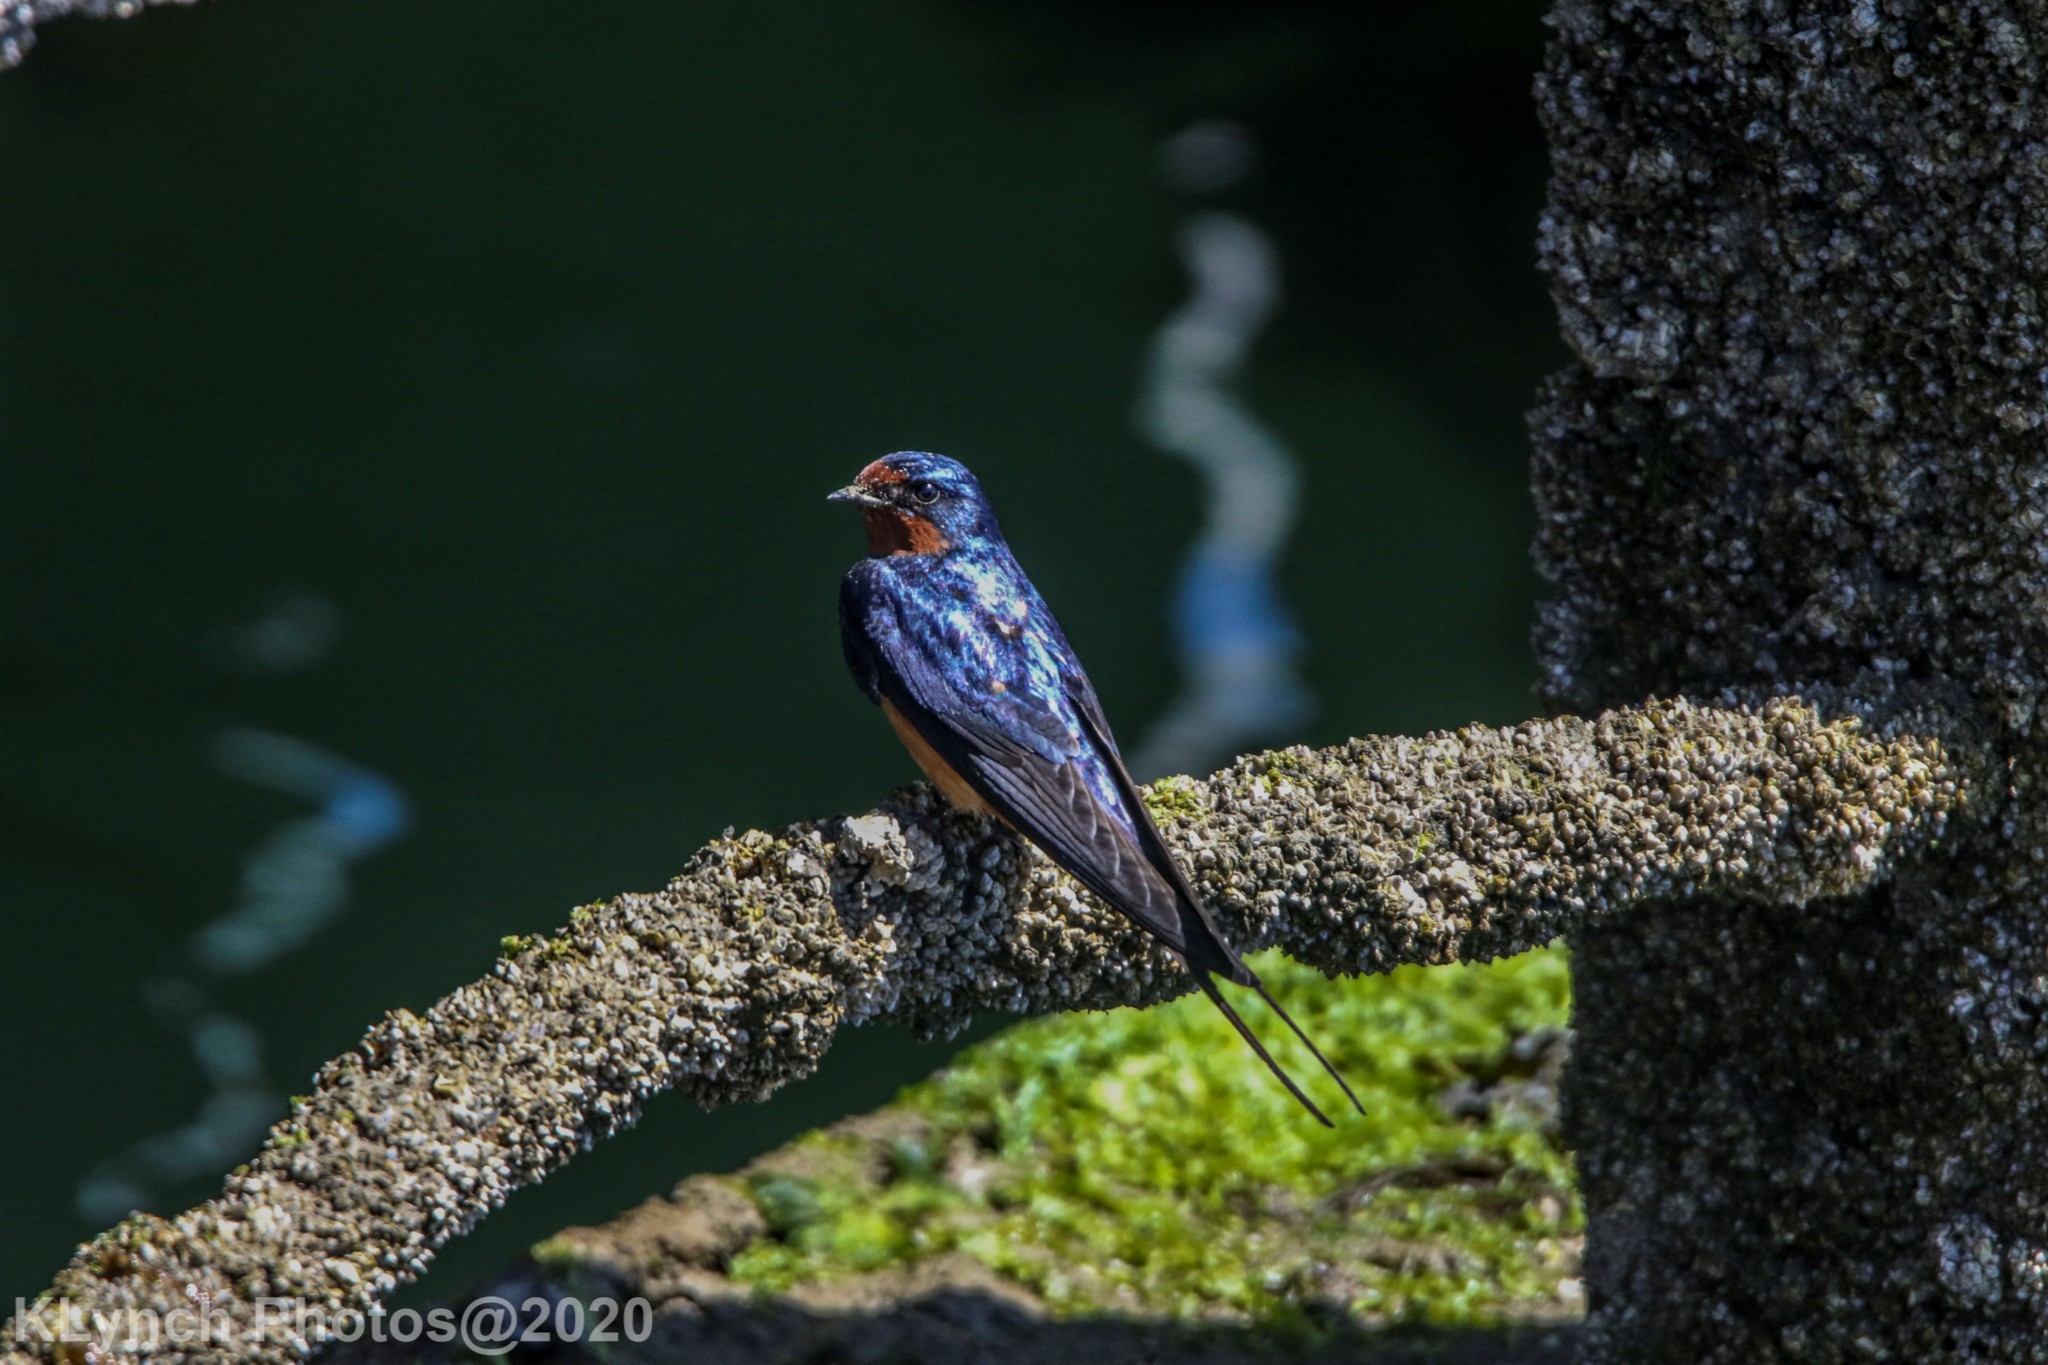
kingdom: Animalia
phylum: Chordata
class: Aves
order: Passeriformes
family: Hirundinidae
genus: Hirundo
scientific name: Hirundo rustica
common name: Barn swallow
